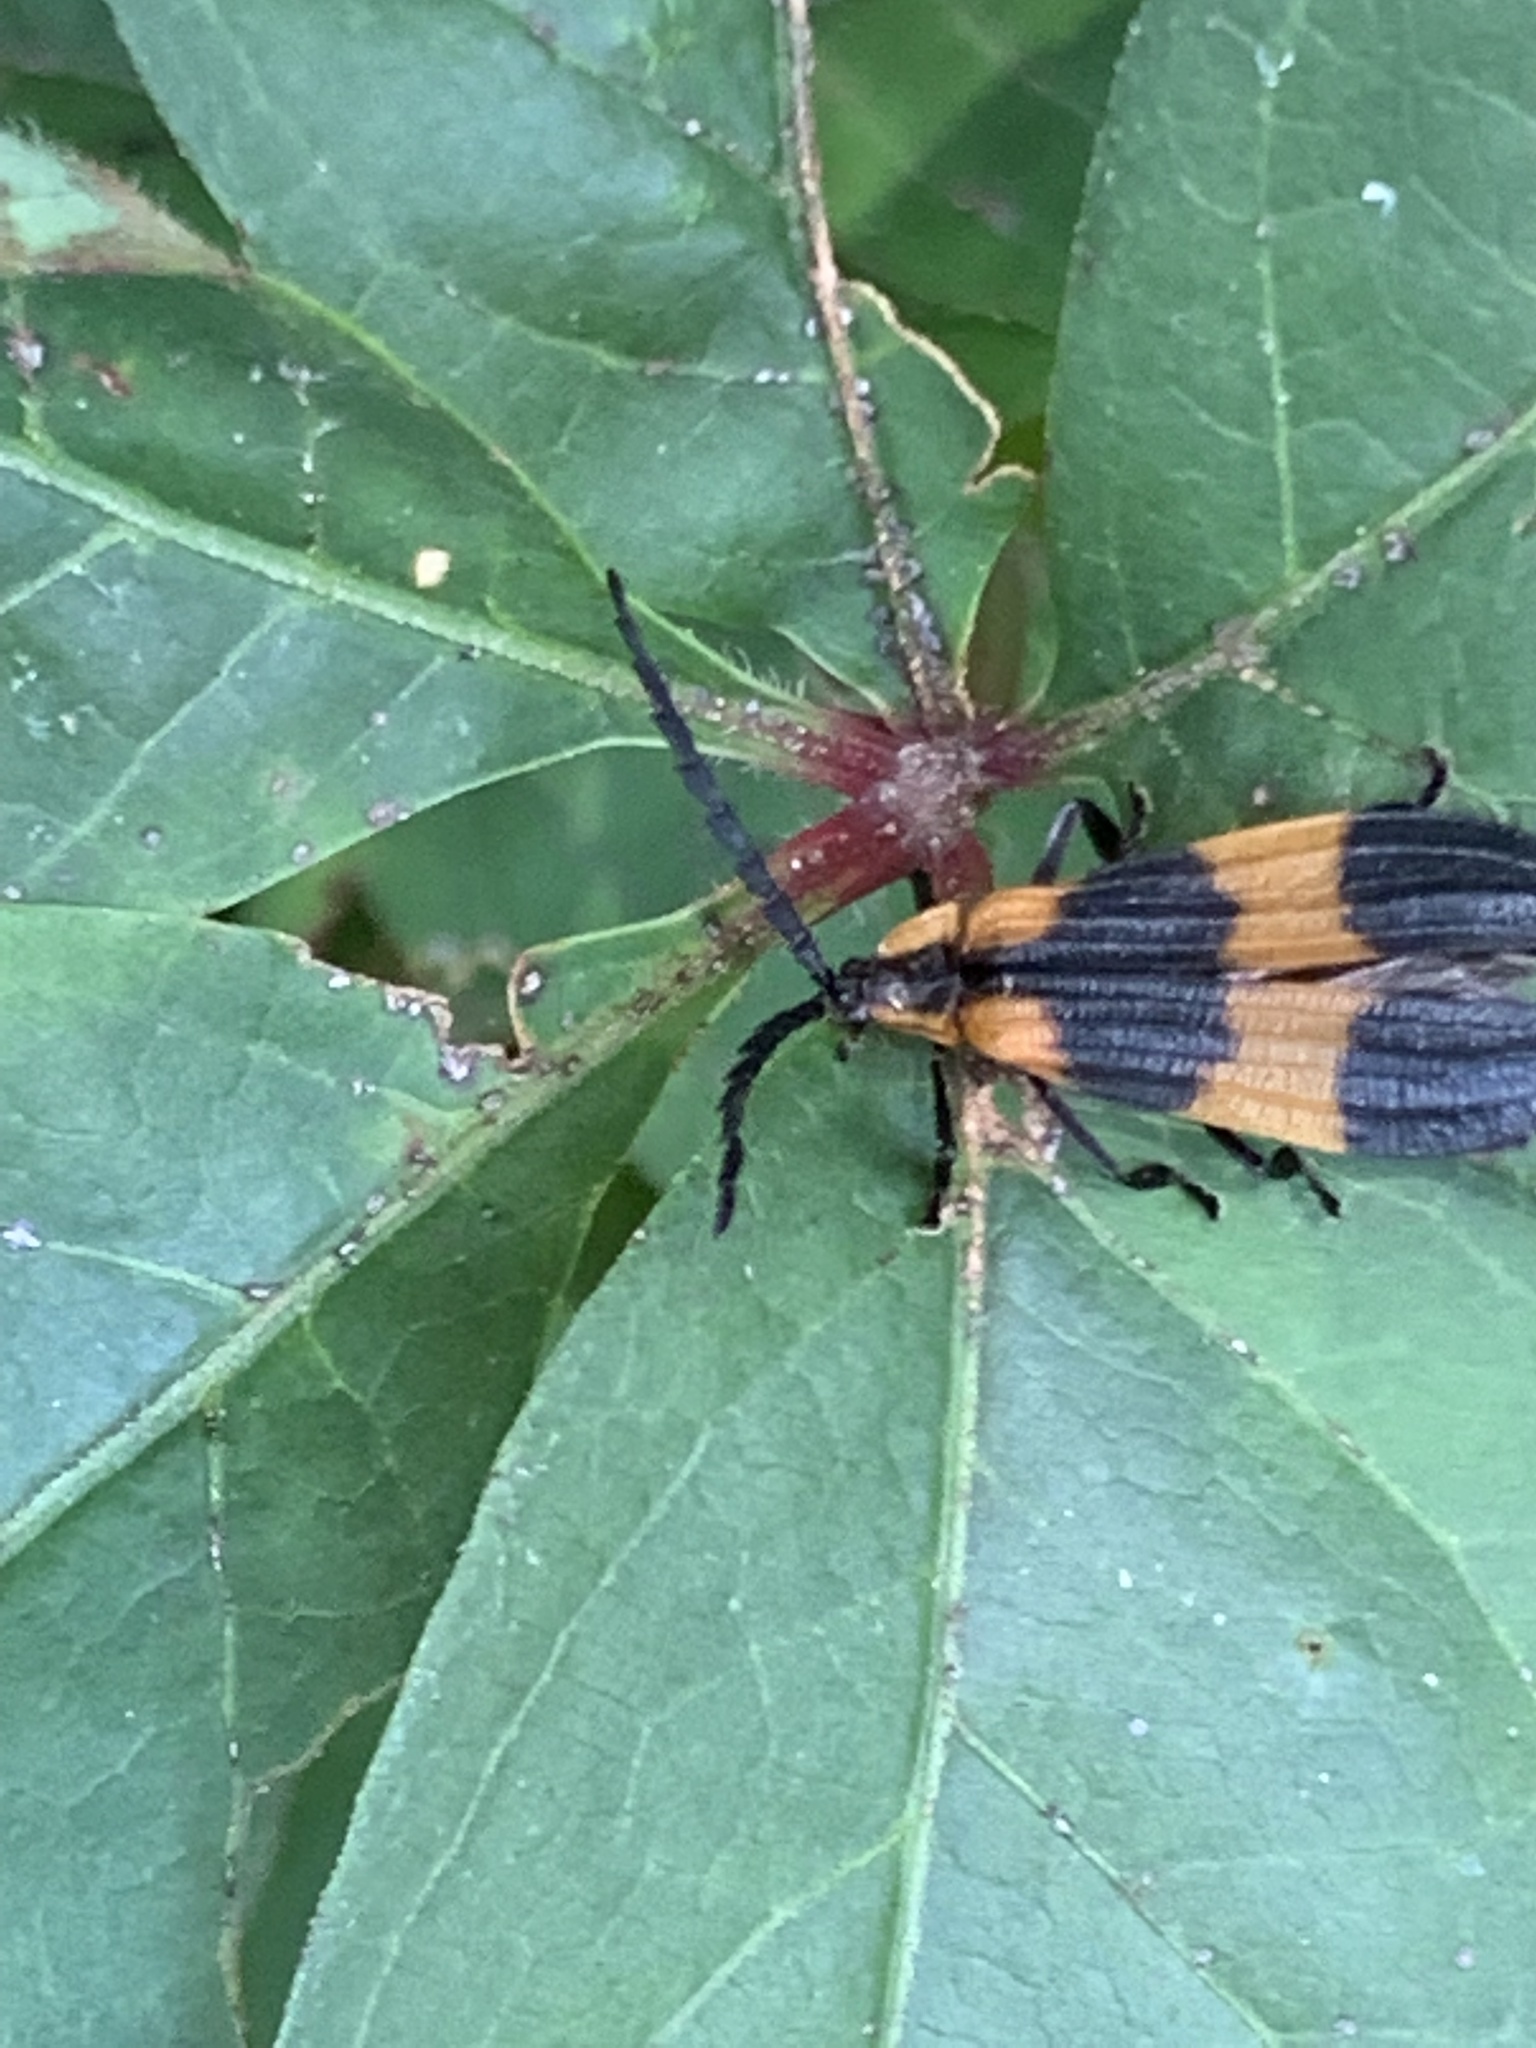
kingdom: Animalia
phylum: Arthropoda
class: Insecta
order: Coleoptera
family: Lycidae
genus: Calopteron
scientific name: Calopteron reticulatum
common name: Banded net-winged beetle
